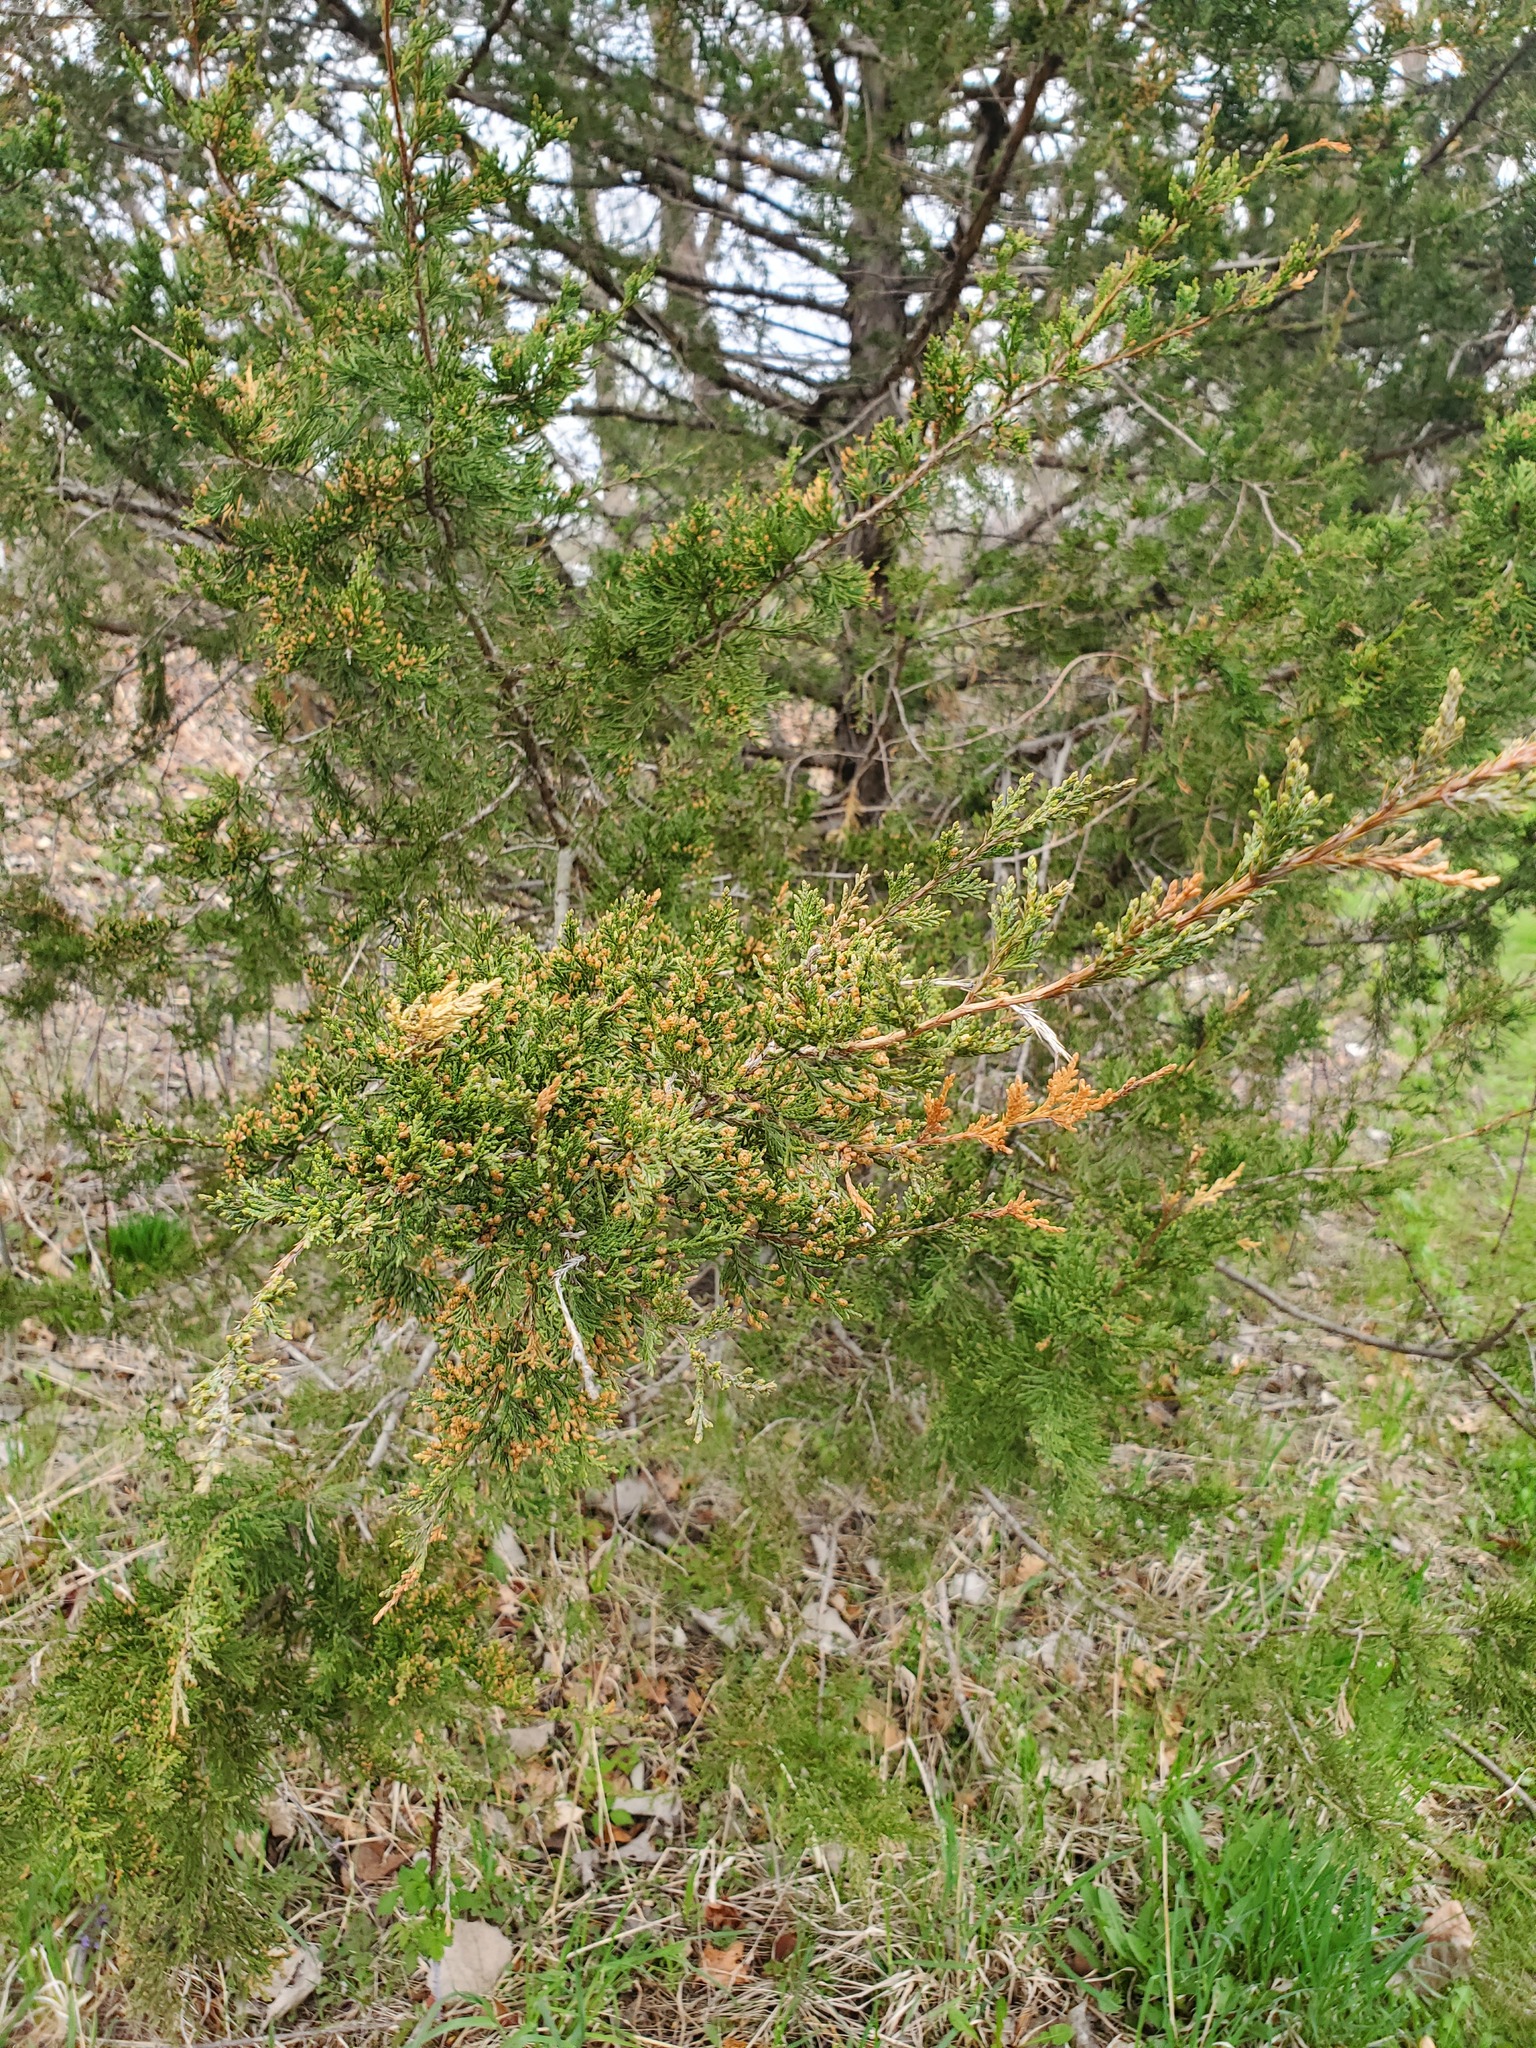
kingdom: Plantae
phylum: Tracheophyta
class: Pinopsida
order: Pinales
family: Cupressaceae
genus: Juniperus
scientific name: Juniperus virginiana
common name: Red juniper
